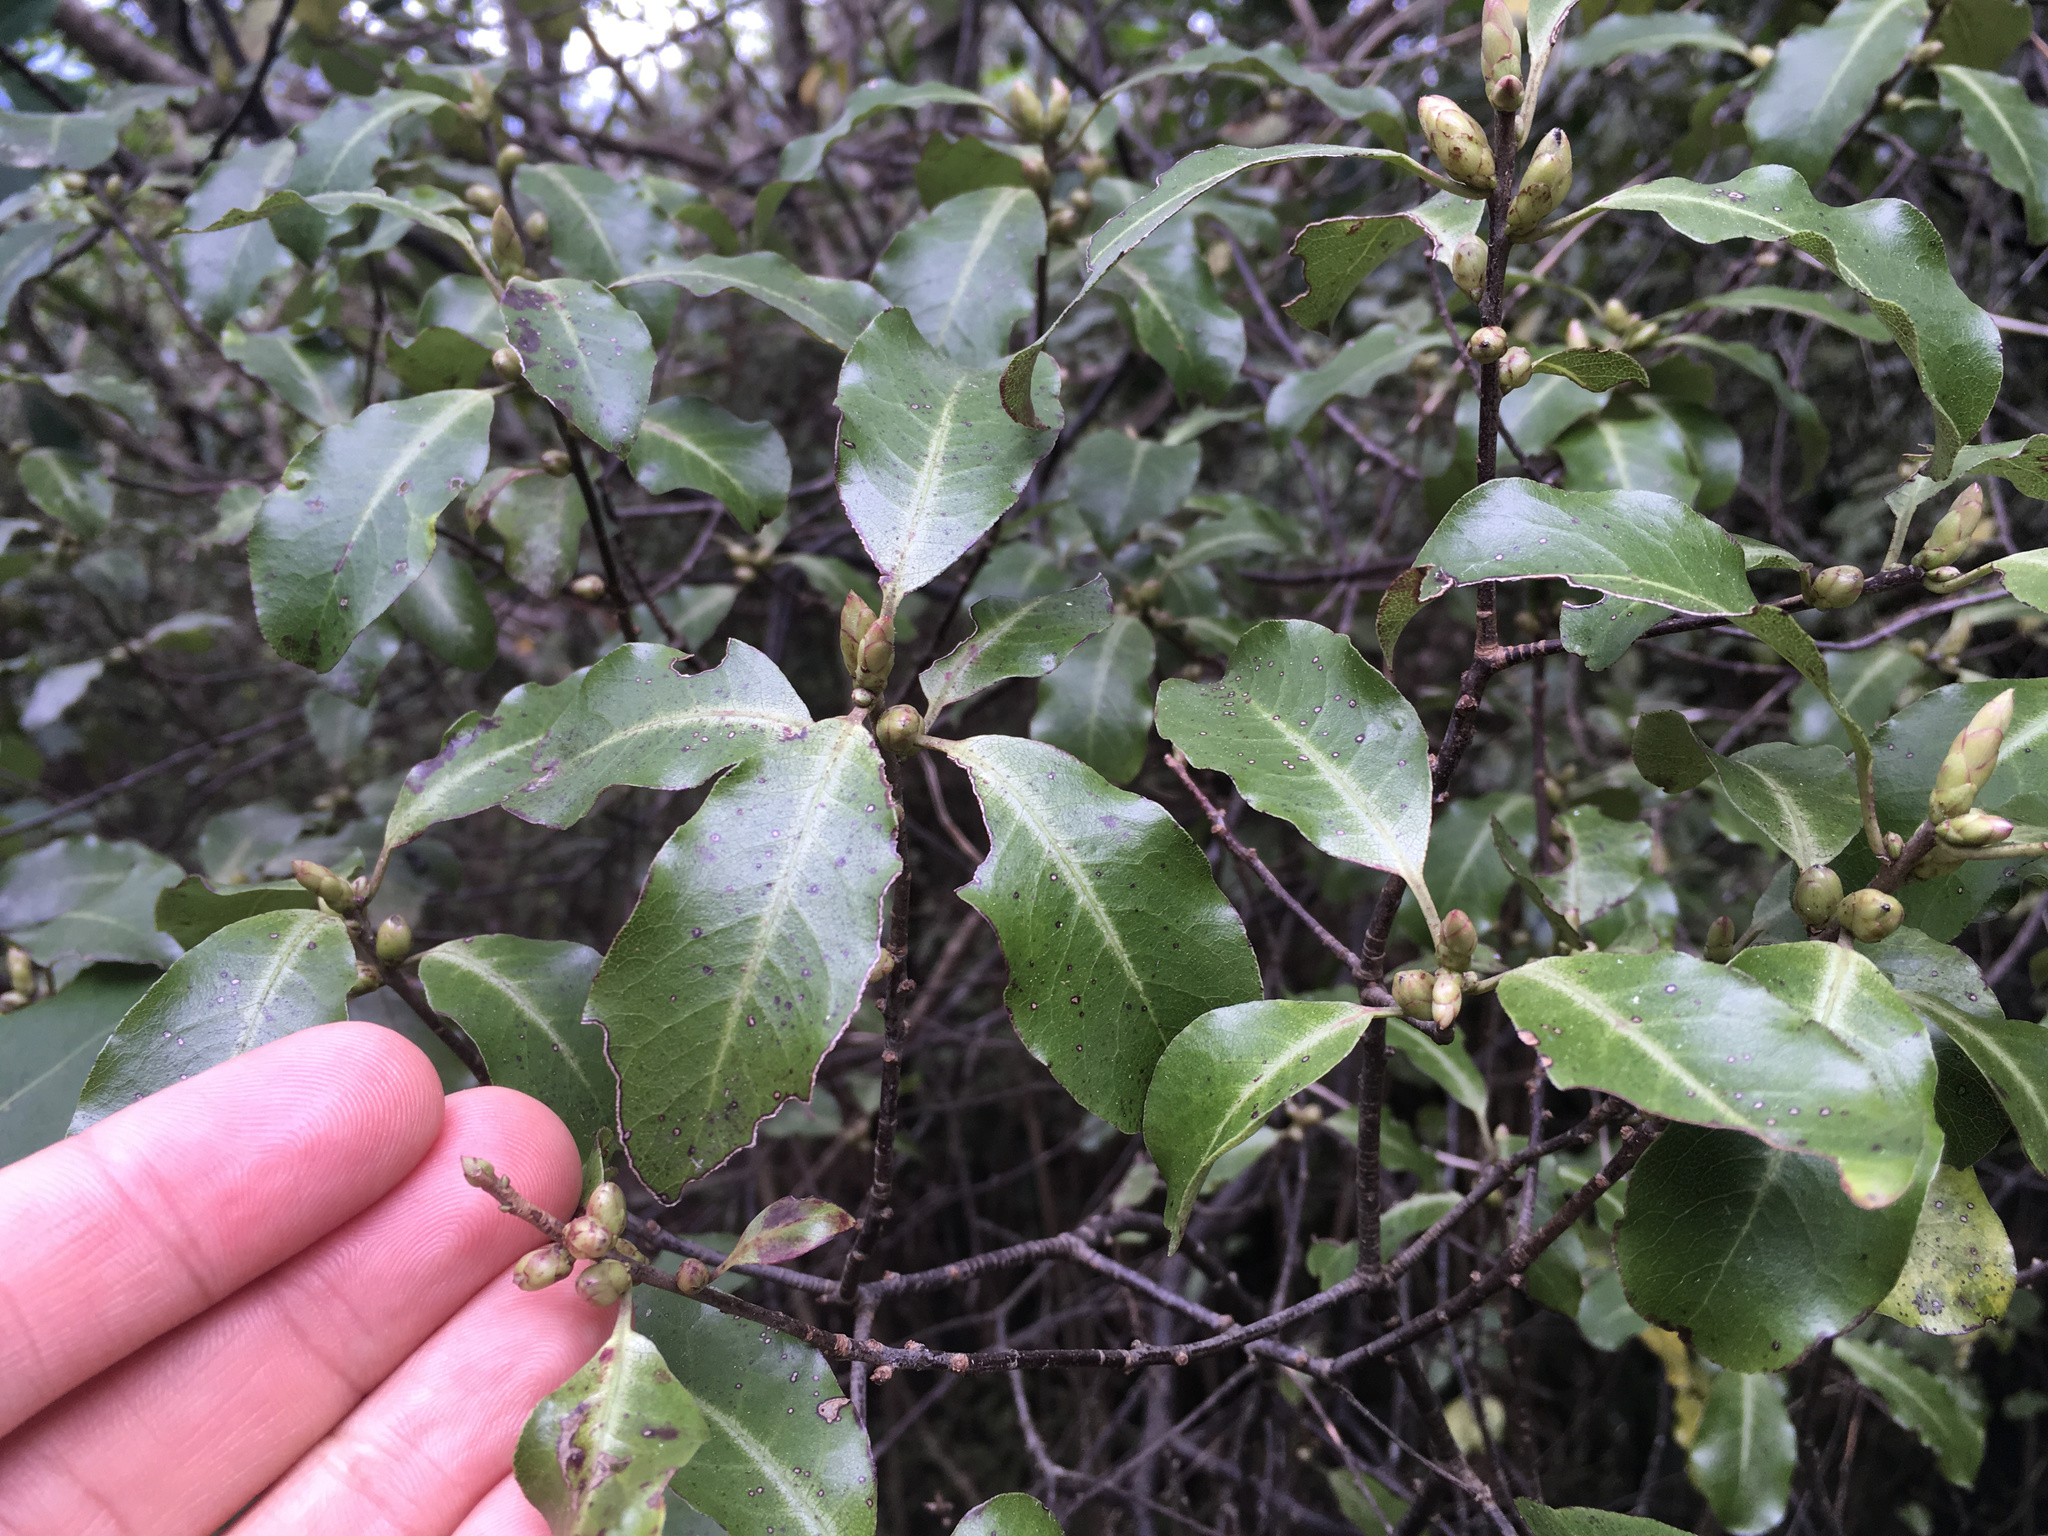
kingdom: Plantae
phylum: Tracheophyta
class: Magnoliopsida
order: Apiales
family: Pittosporaceae
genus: Pittosporum
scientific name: Pittosporum tenuifolium
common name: Kohuhu
